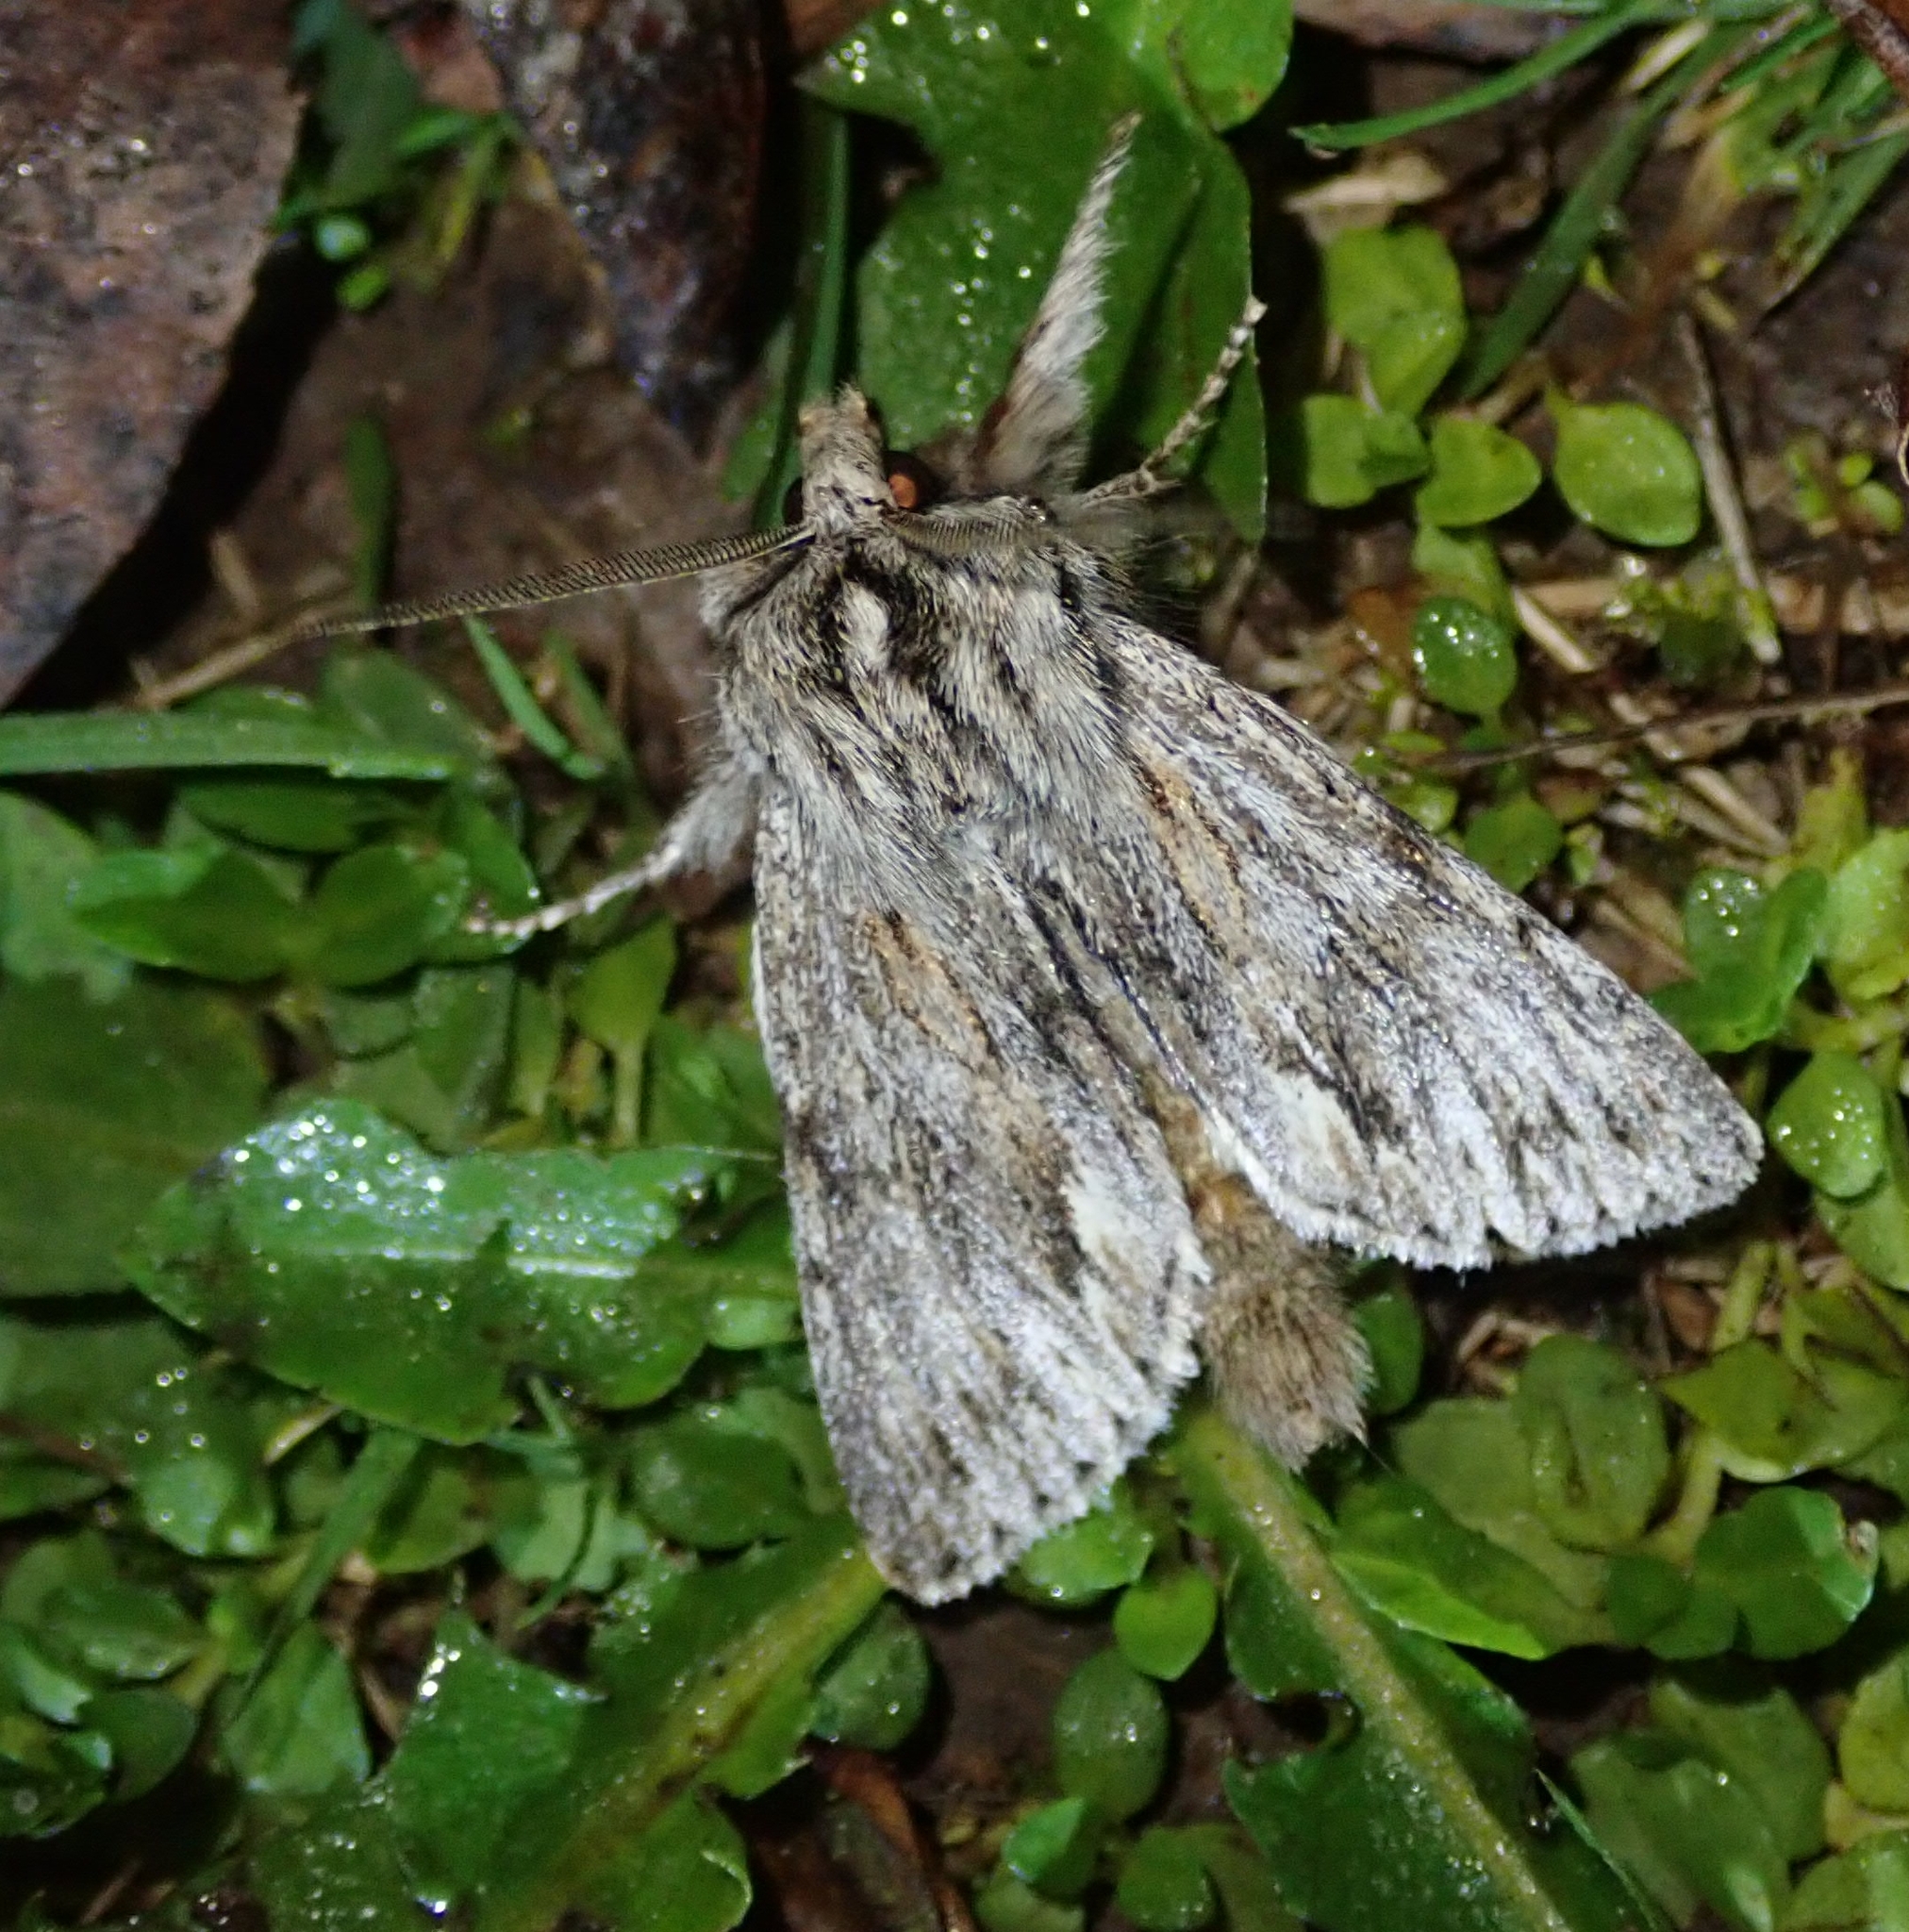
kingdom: Animalia
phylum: Arthropoda
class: Insecta
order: Lepidoptera
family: Noctuidae
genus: Asteroscopus
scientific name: Asteroscopus sphinx
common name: The sprawler
